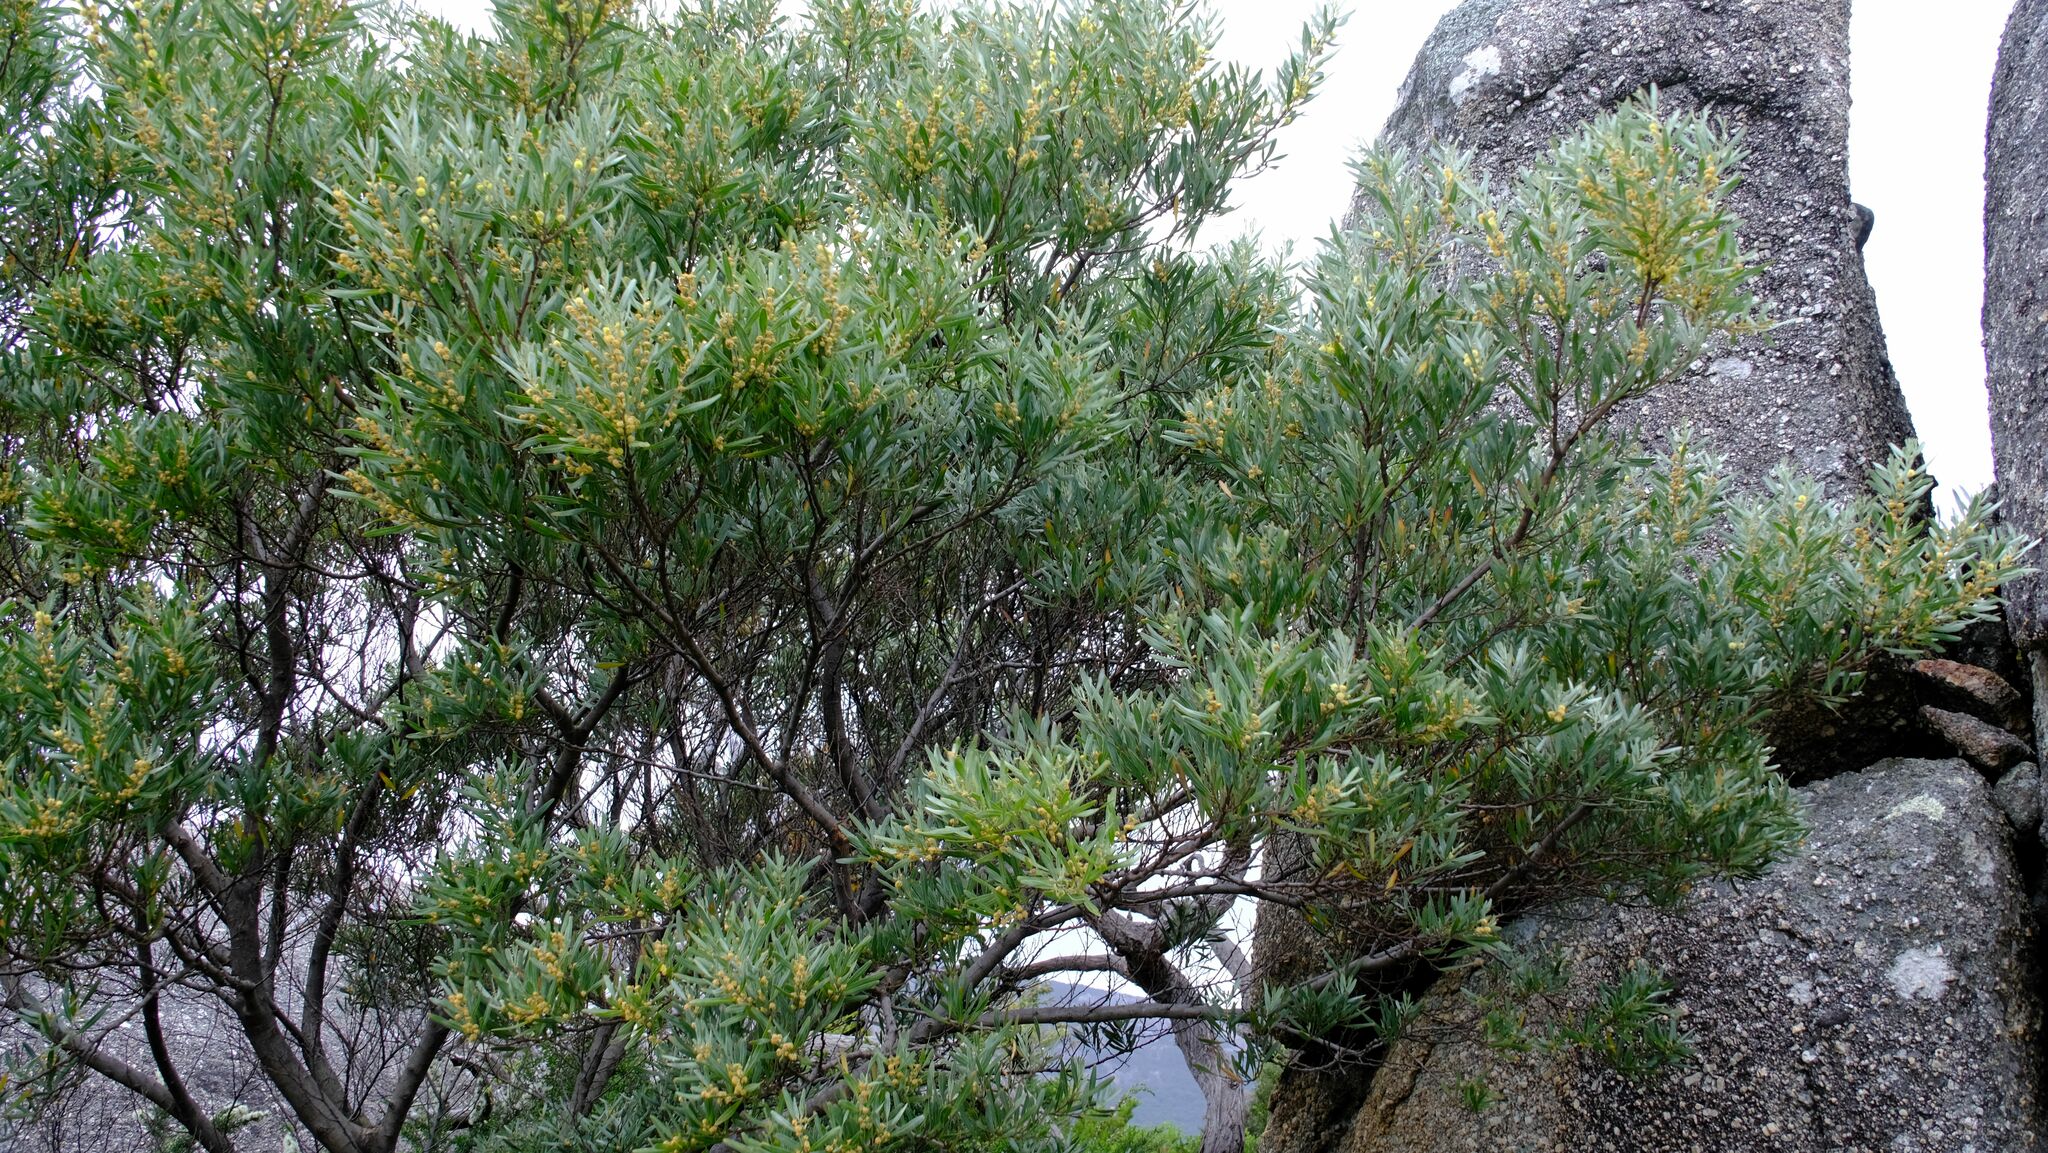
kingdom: Plantae
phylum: Tracheophyta
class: Magnoliopsida
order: Fabales
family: Fabaceae
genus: Acacia
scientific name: Acacia stricta
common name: Hop wattle
